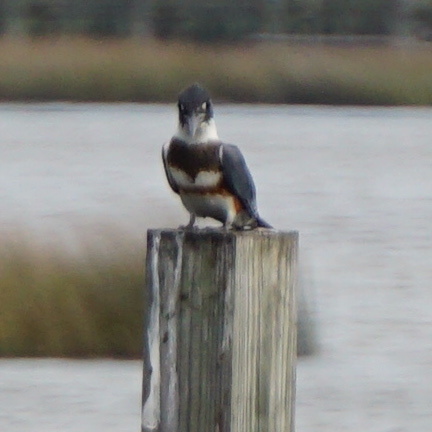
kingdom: Animalia
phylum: Chordata
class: Aves
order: Coraciiformes
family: Alcedinidae
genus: Megaceryle
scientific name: Megaceryle alcyon
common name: Belted kingfisher
